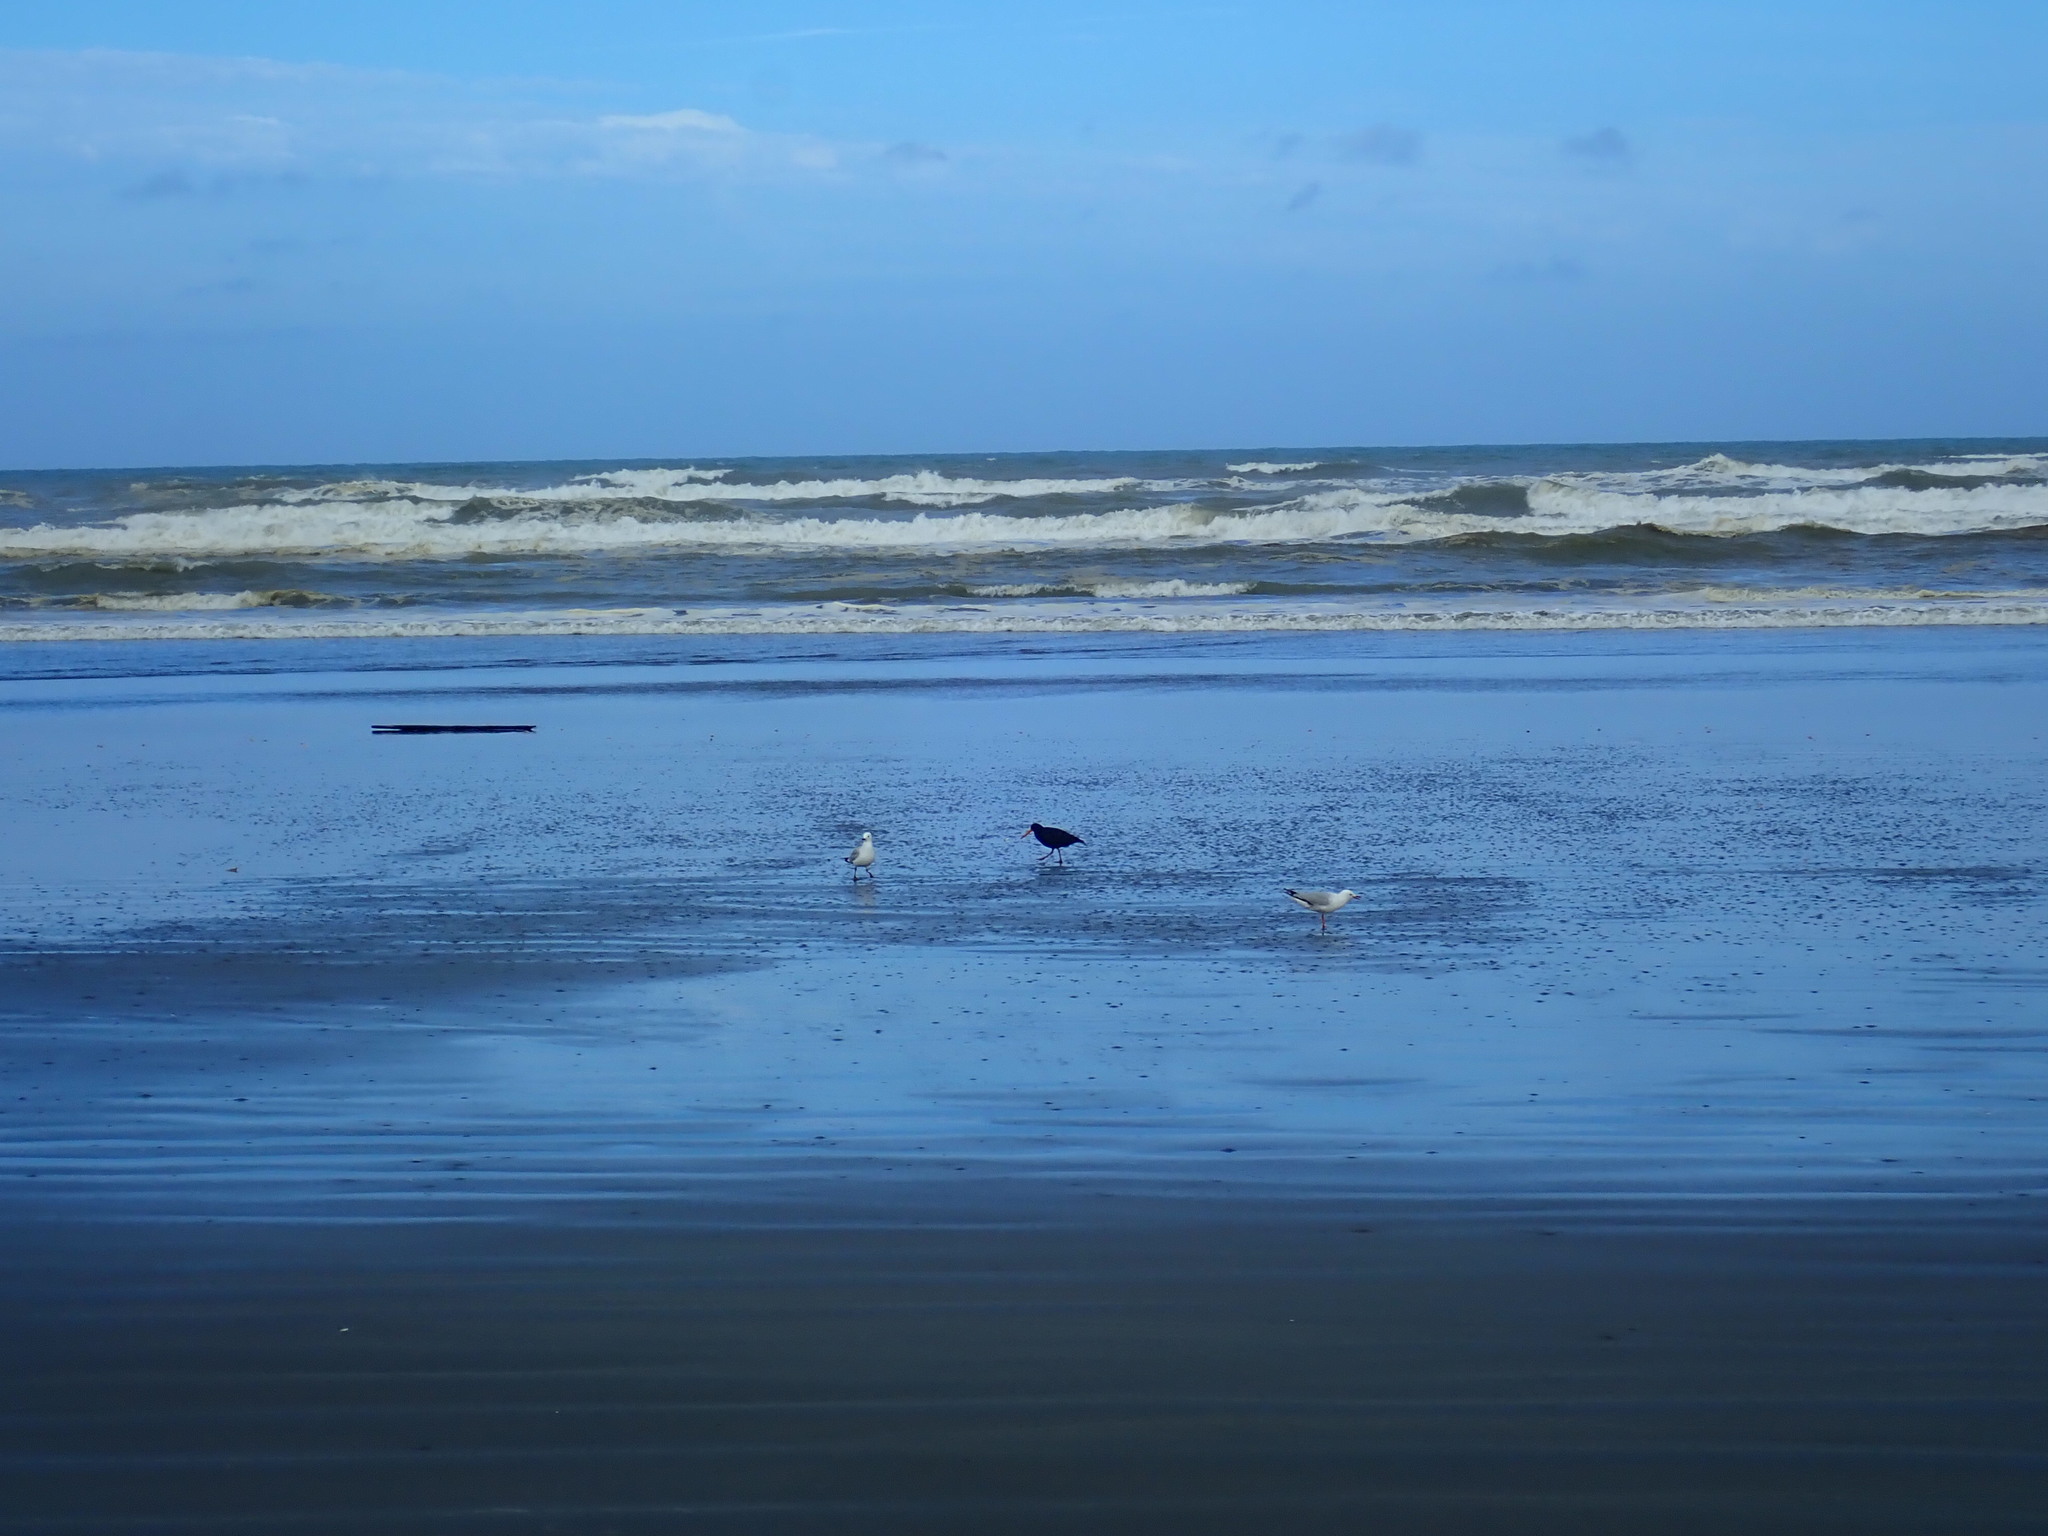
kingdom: Animalia
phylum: Chordata
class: Aves
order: Charadriiformes
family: Haematopodidae
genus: Haematopus
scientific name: Haematopus unicolor
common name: Variable oystercatcher
